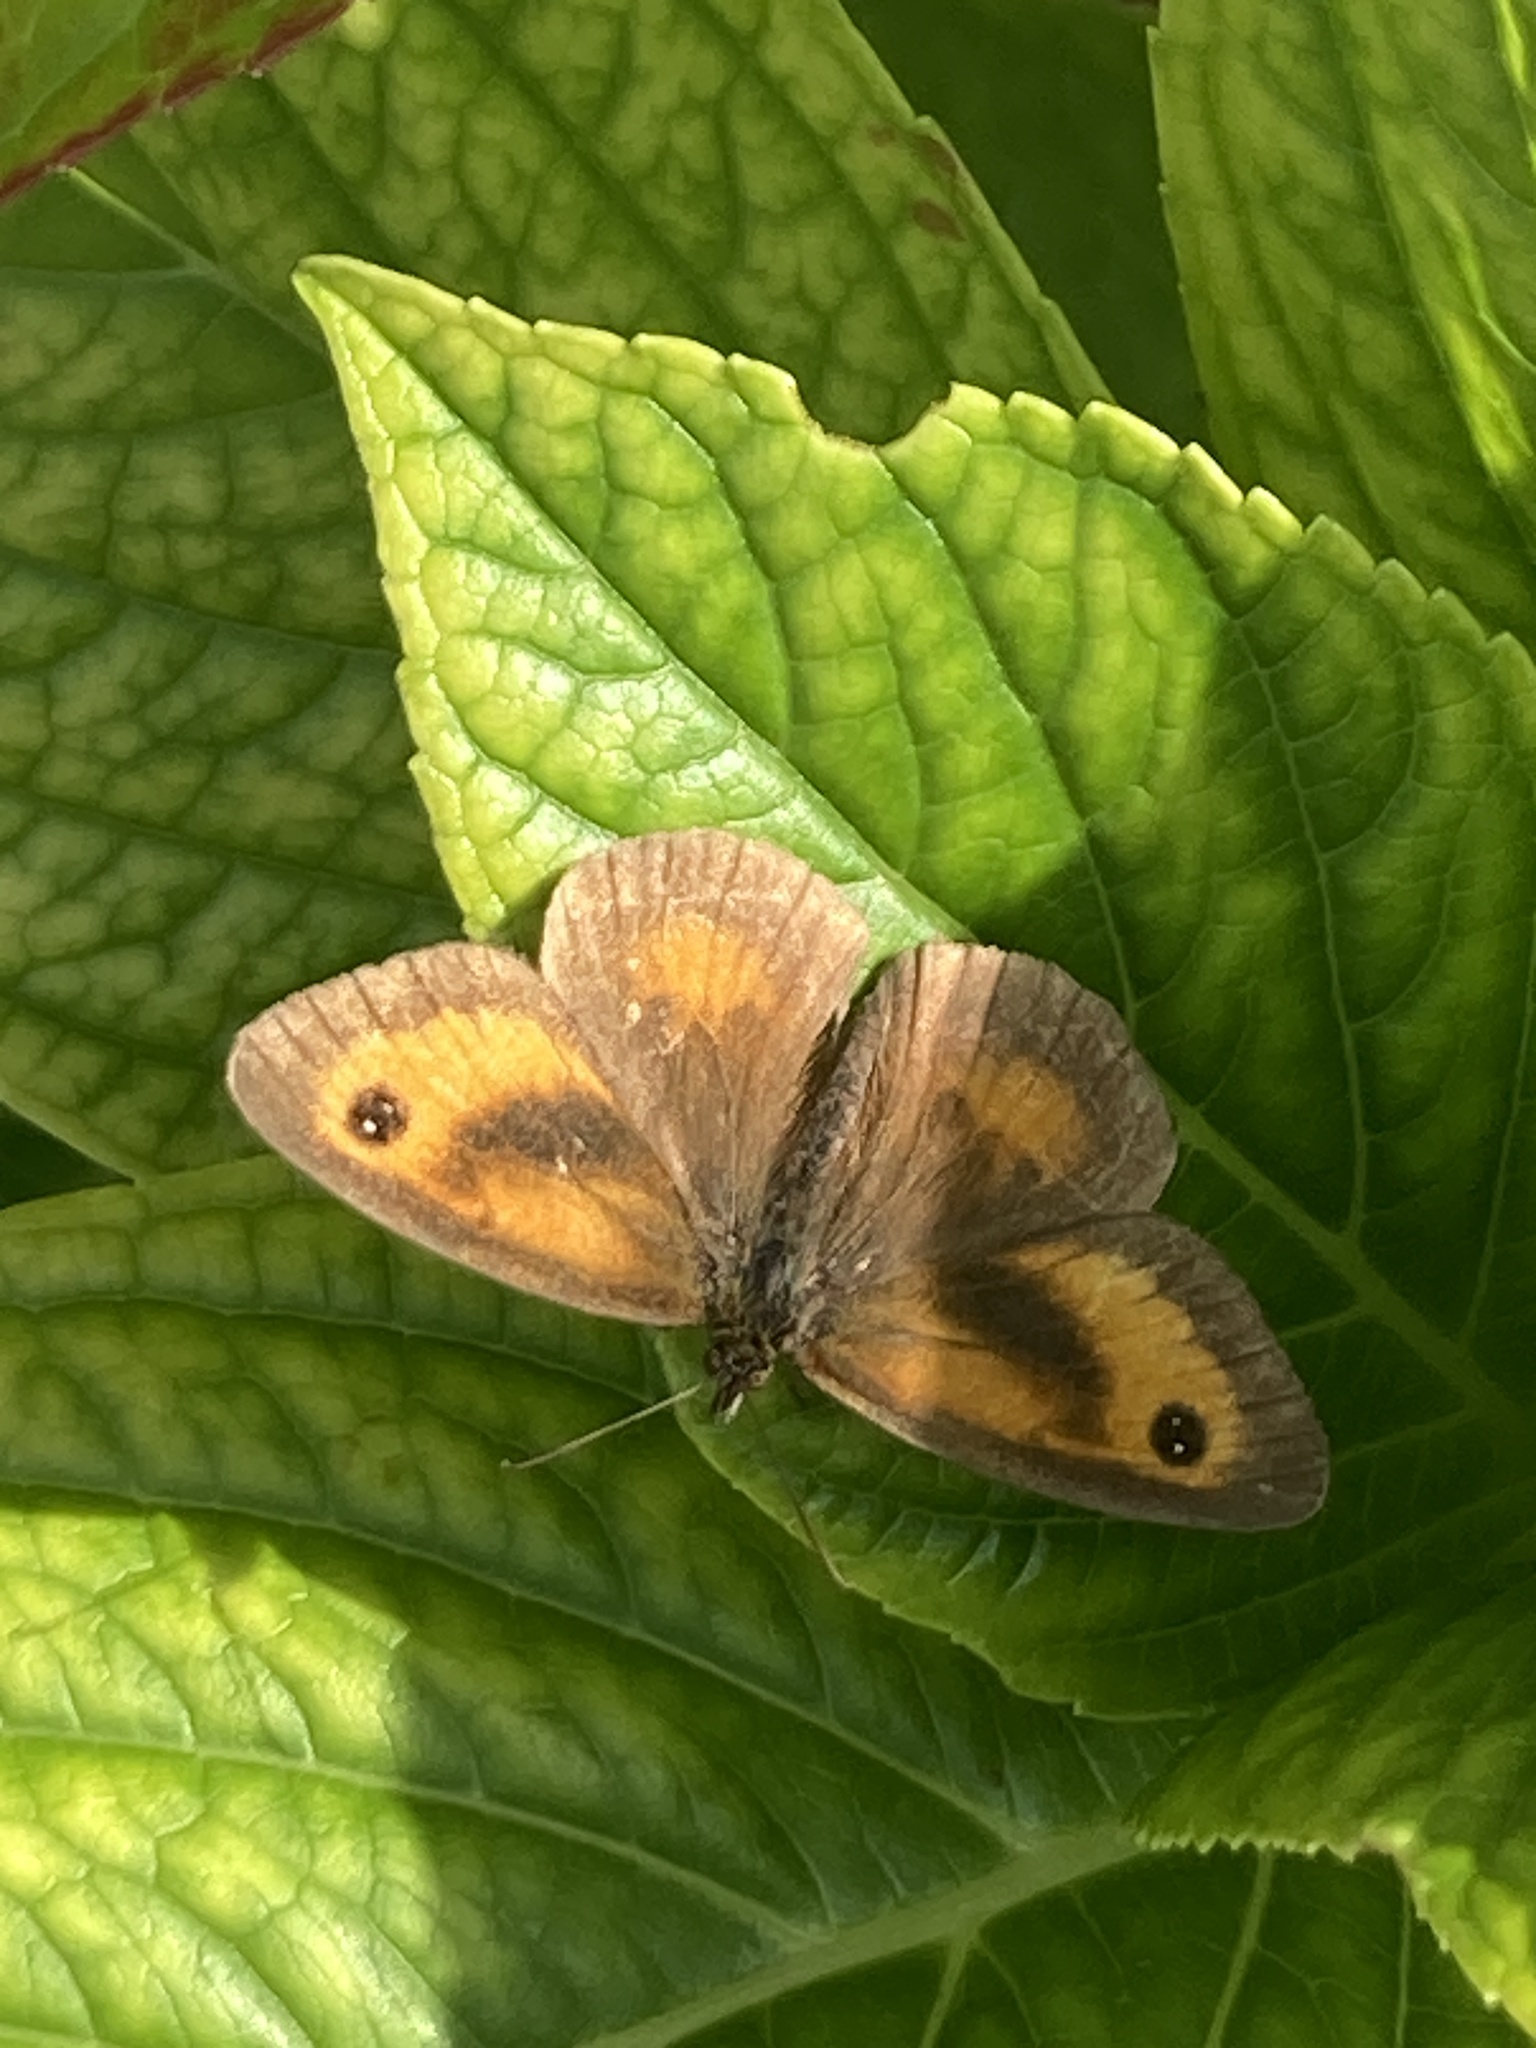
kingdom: Animalia
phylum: Arthropoda
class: Insecta
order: Lepidoptera
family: Nymphalidae
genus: Pyronia
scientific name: Pyronia tithonus
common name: Gatekeeper
